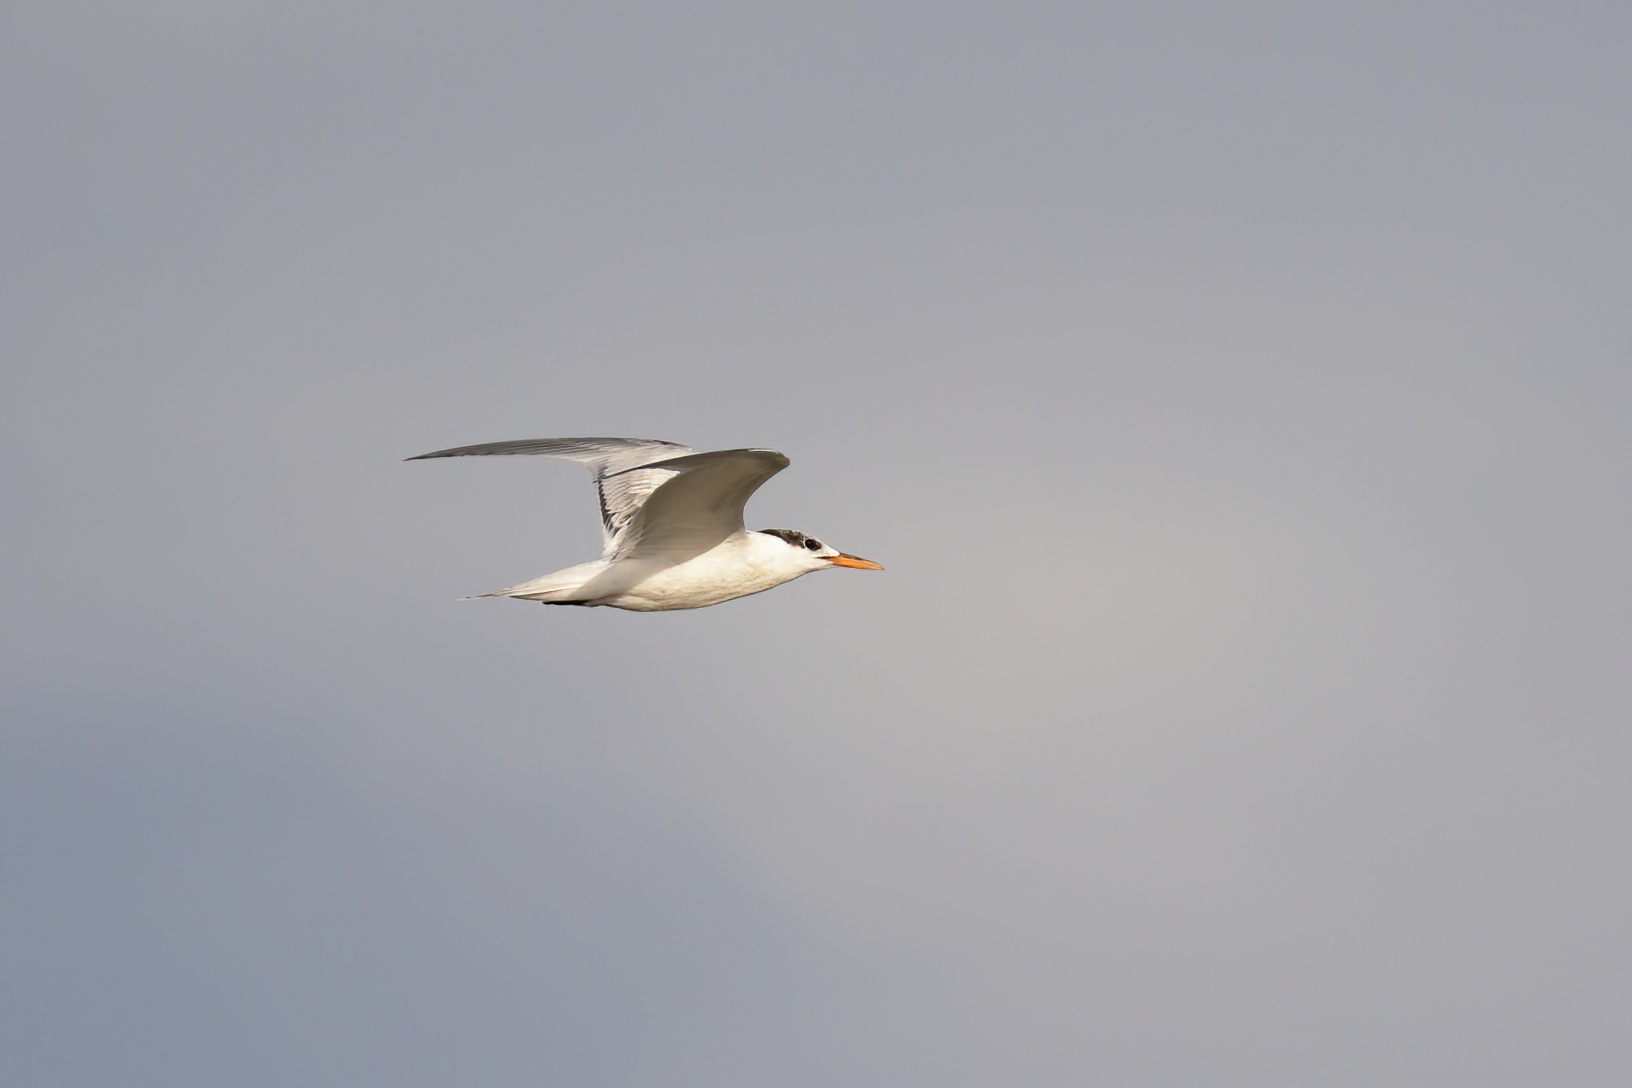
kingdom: Animalia
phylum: Chordata
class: Aves
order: Charadriiformes
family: Laridae
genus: Thalasseus
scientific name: Thalasseus maximus
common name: Royal tern
